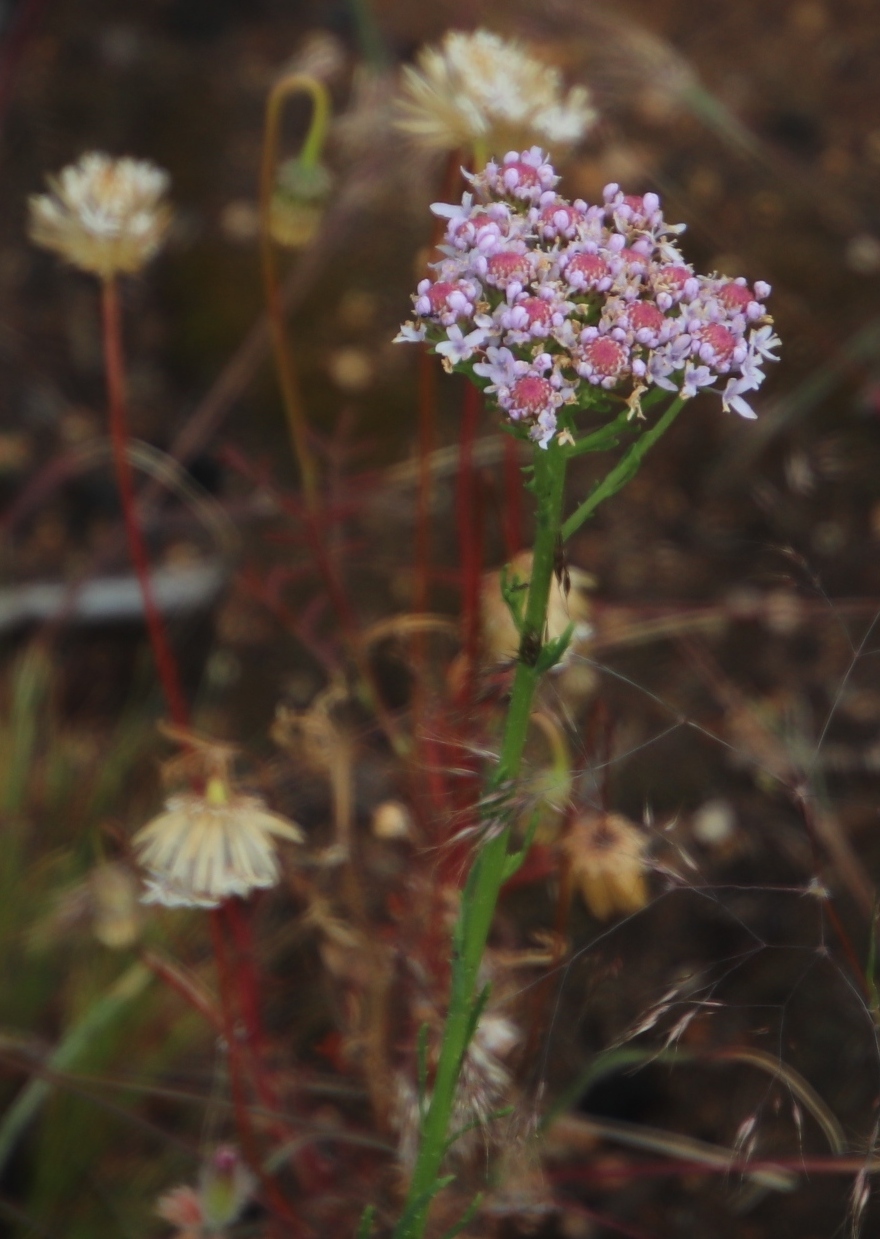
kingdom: Plantae
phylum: Tracheophyta
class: Magnoliopsida
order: Lamiales
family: Scrophulariaceae
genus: Pseudoselago
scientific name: Pseudoselago spuria
